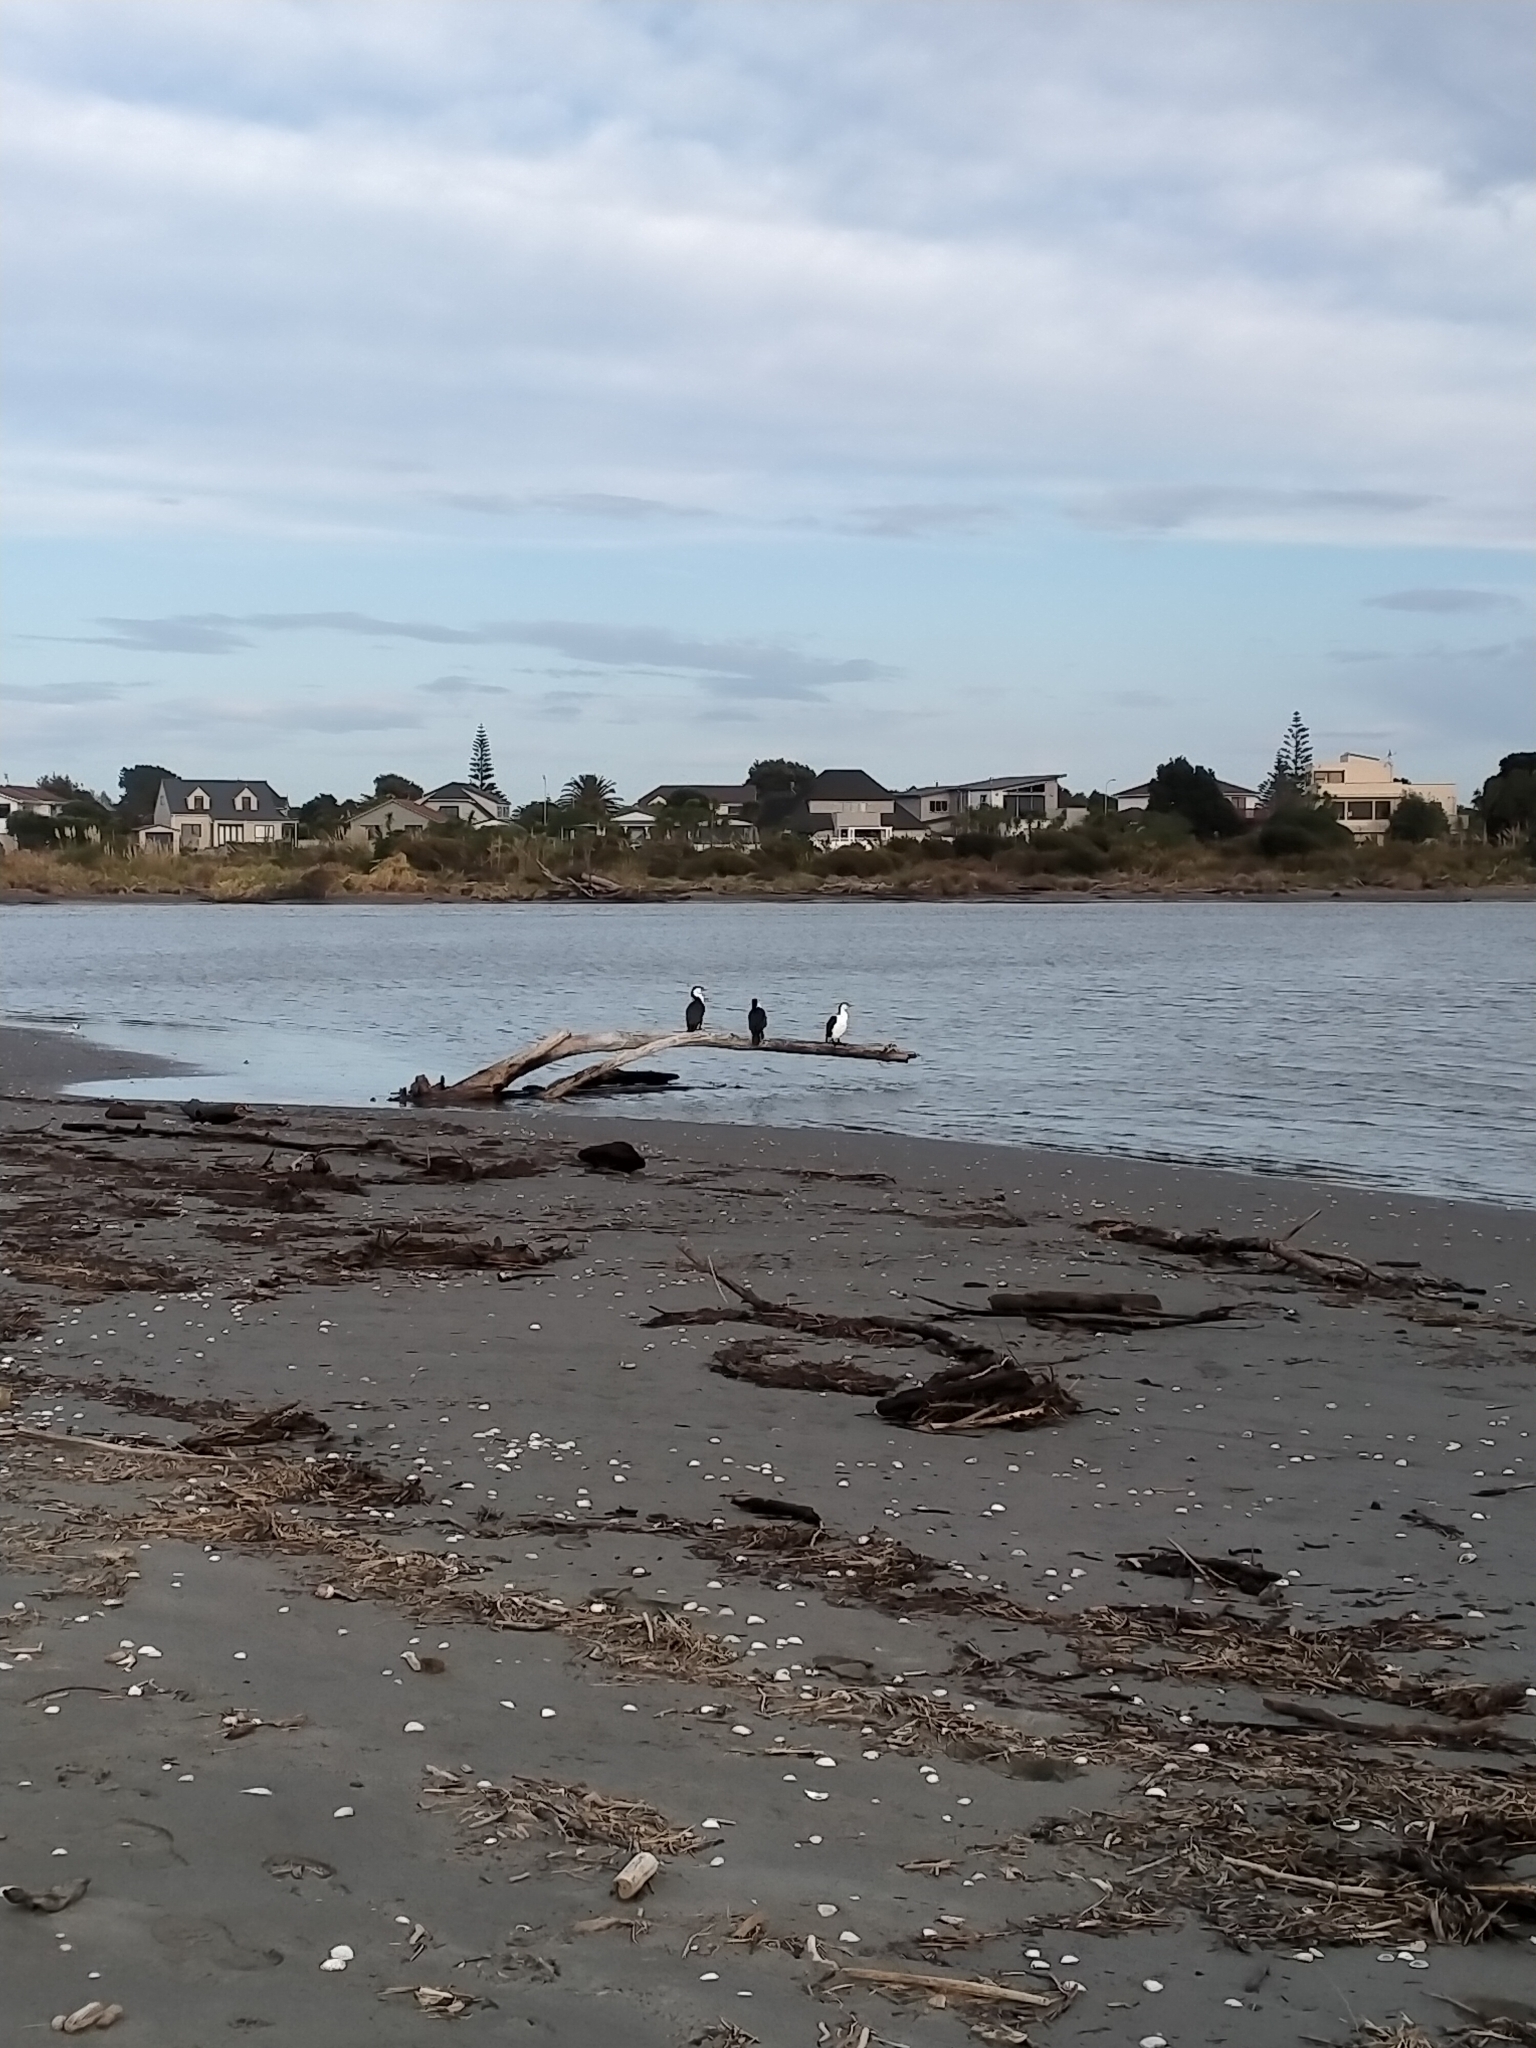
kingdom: Animalia
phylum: Chordata
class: Aves
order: Suliformes
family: Phalacrocoracidae
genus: Phalacrocorax
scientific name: Phalacrocorax varius
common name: Pied cormorant
